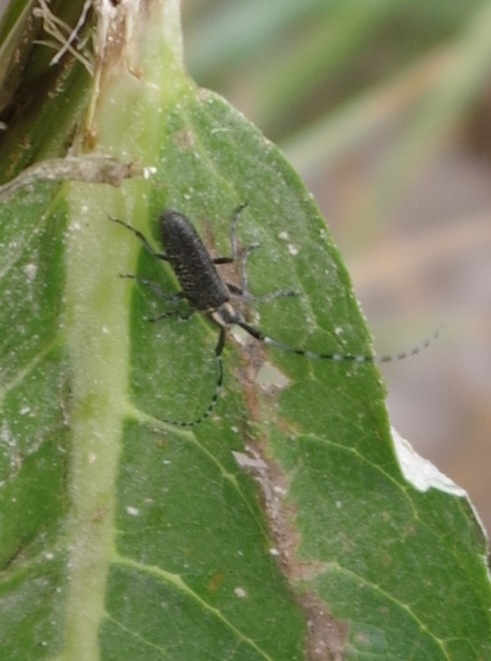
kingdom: Animalia
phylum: Arthropoda
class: Insecta
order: Coleoptera
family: Cerambycidae
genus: Agapanthia
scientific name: Agapanthia villosoviridescens
